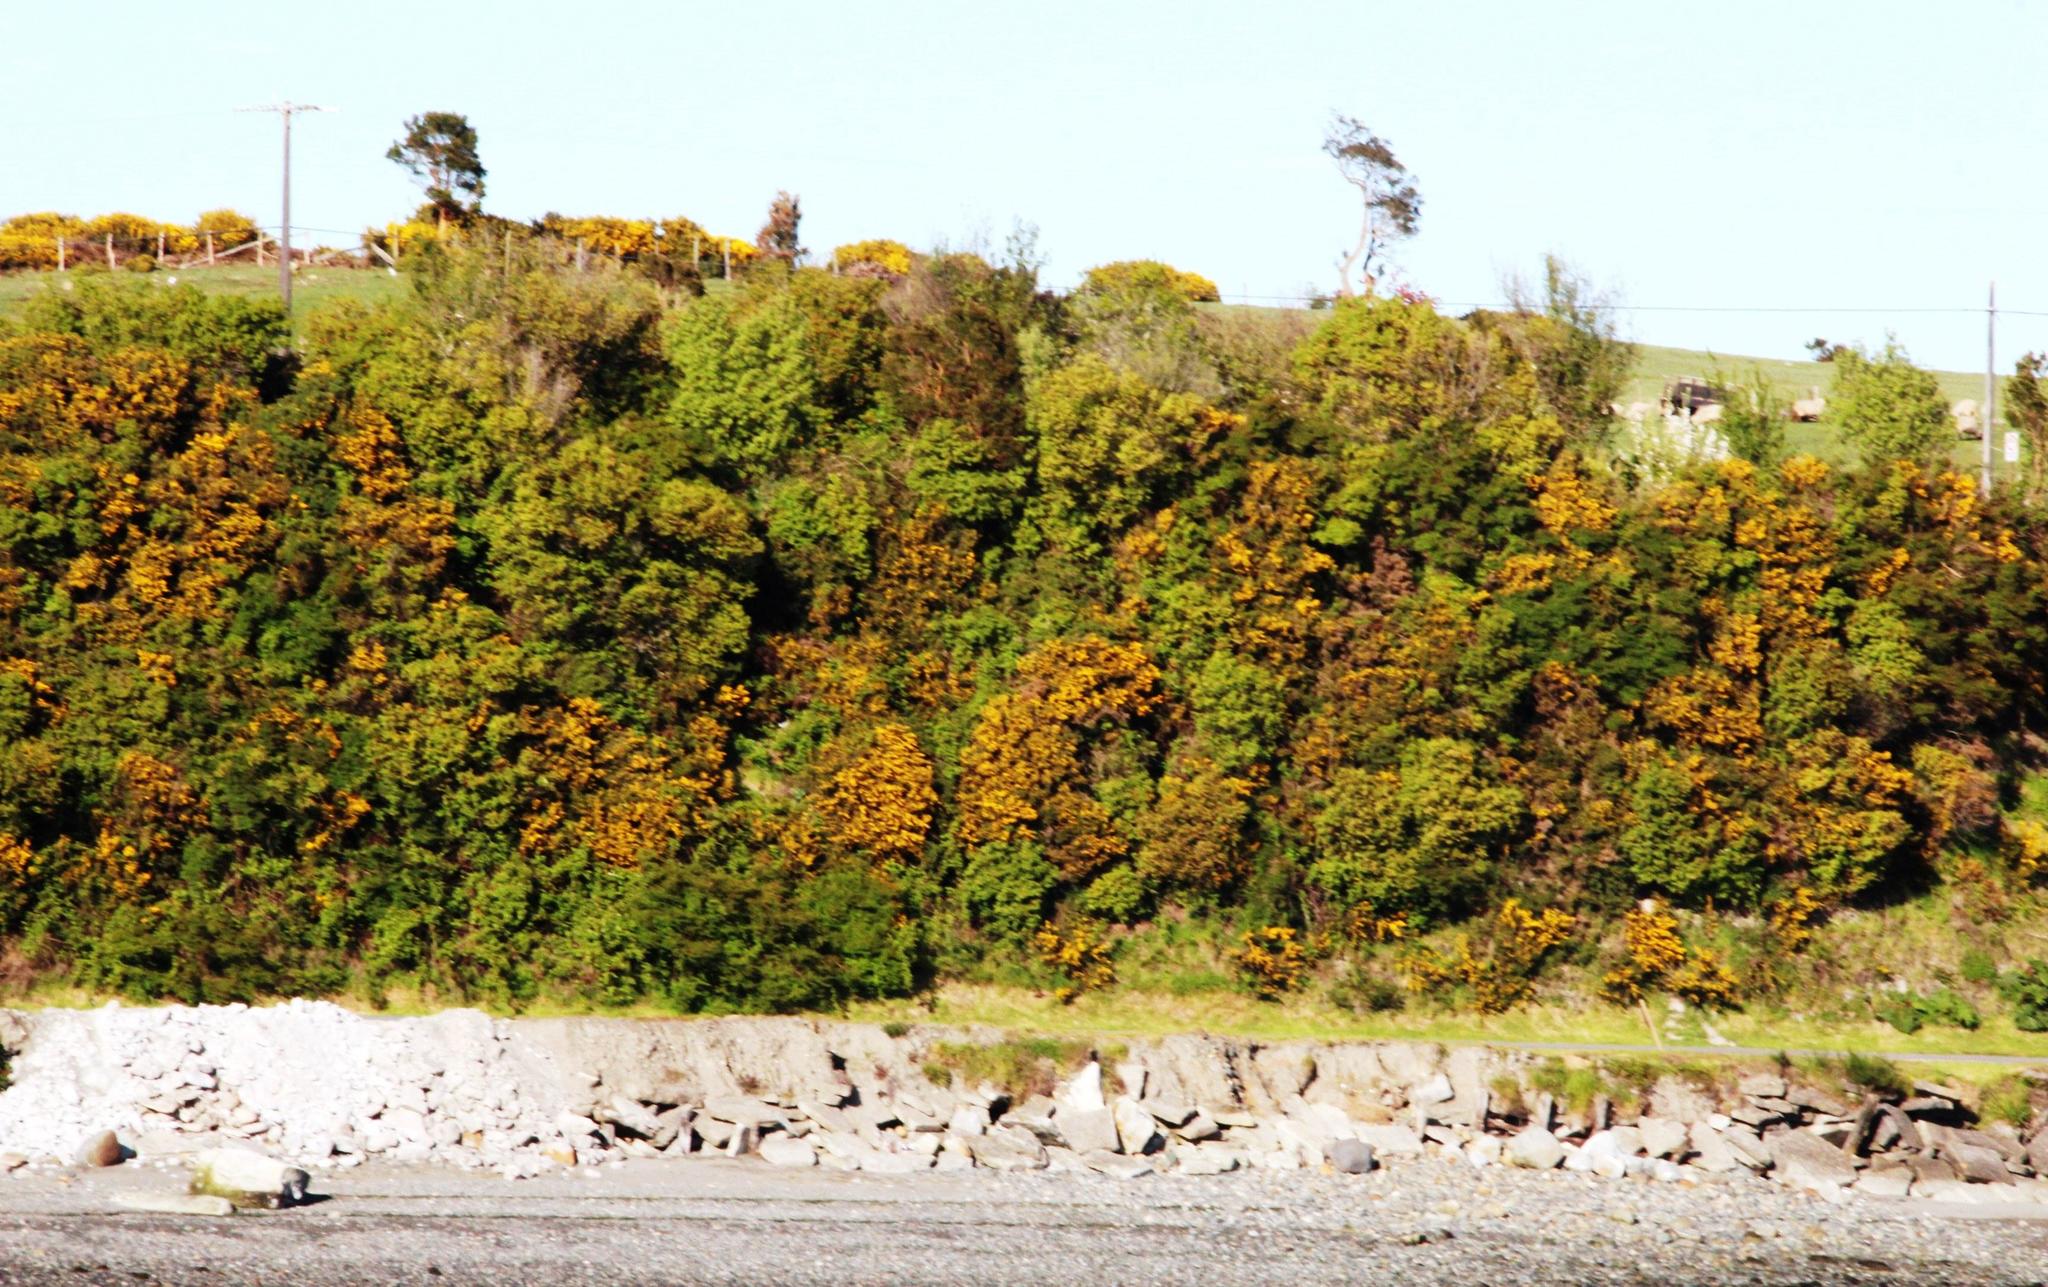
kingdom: Plantae
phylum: Tracheophyta
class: Magnoliopsida
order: Fabales
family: Fabaceae
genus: Ulex
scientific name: Ulex europaeus
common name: Common gorse
